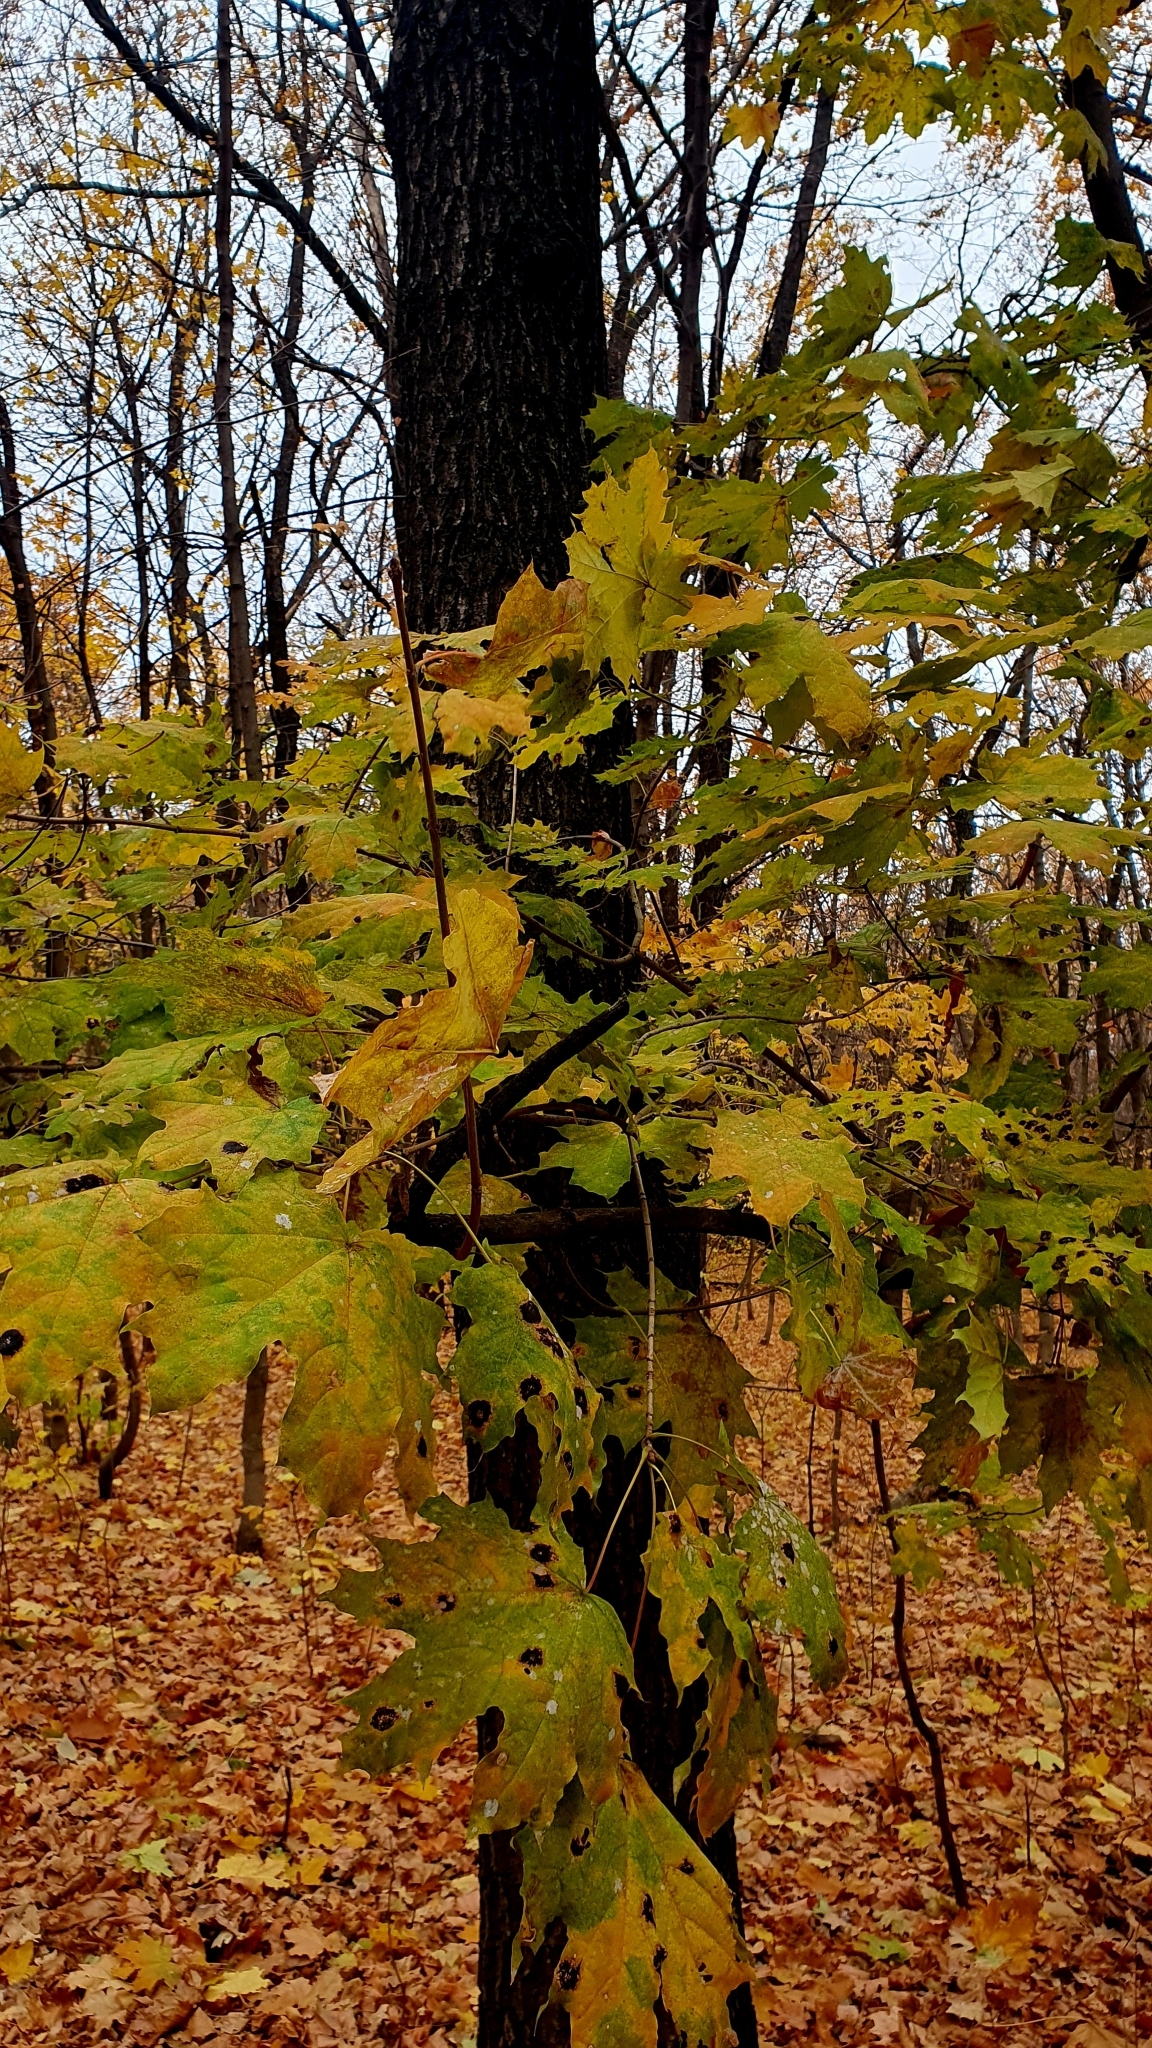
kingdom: Plantae
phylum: Tracheophyta
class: Magnoliopsida
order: Sapindales
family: Sapindaceae
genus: Acer
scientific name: Acer platanoides
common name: Norway maple
